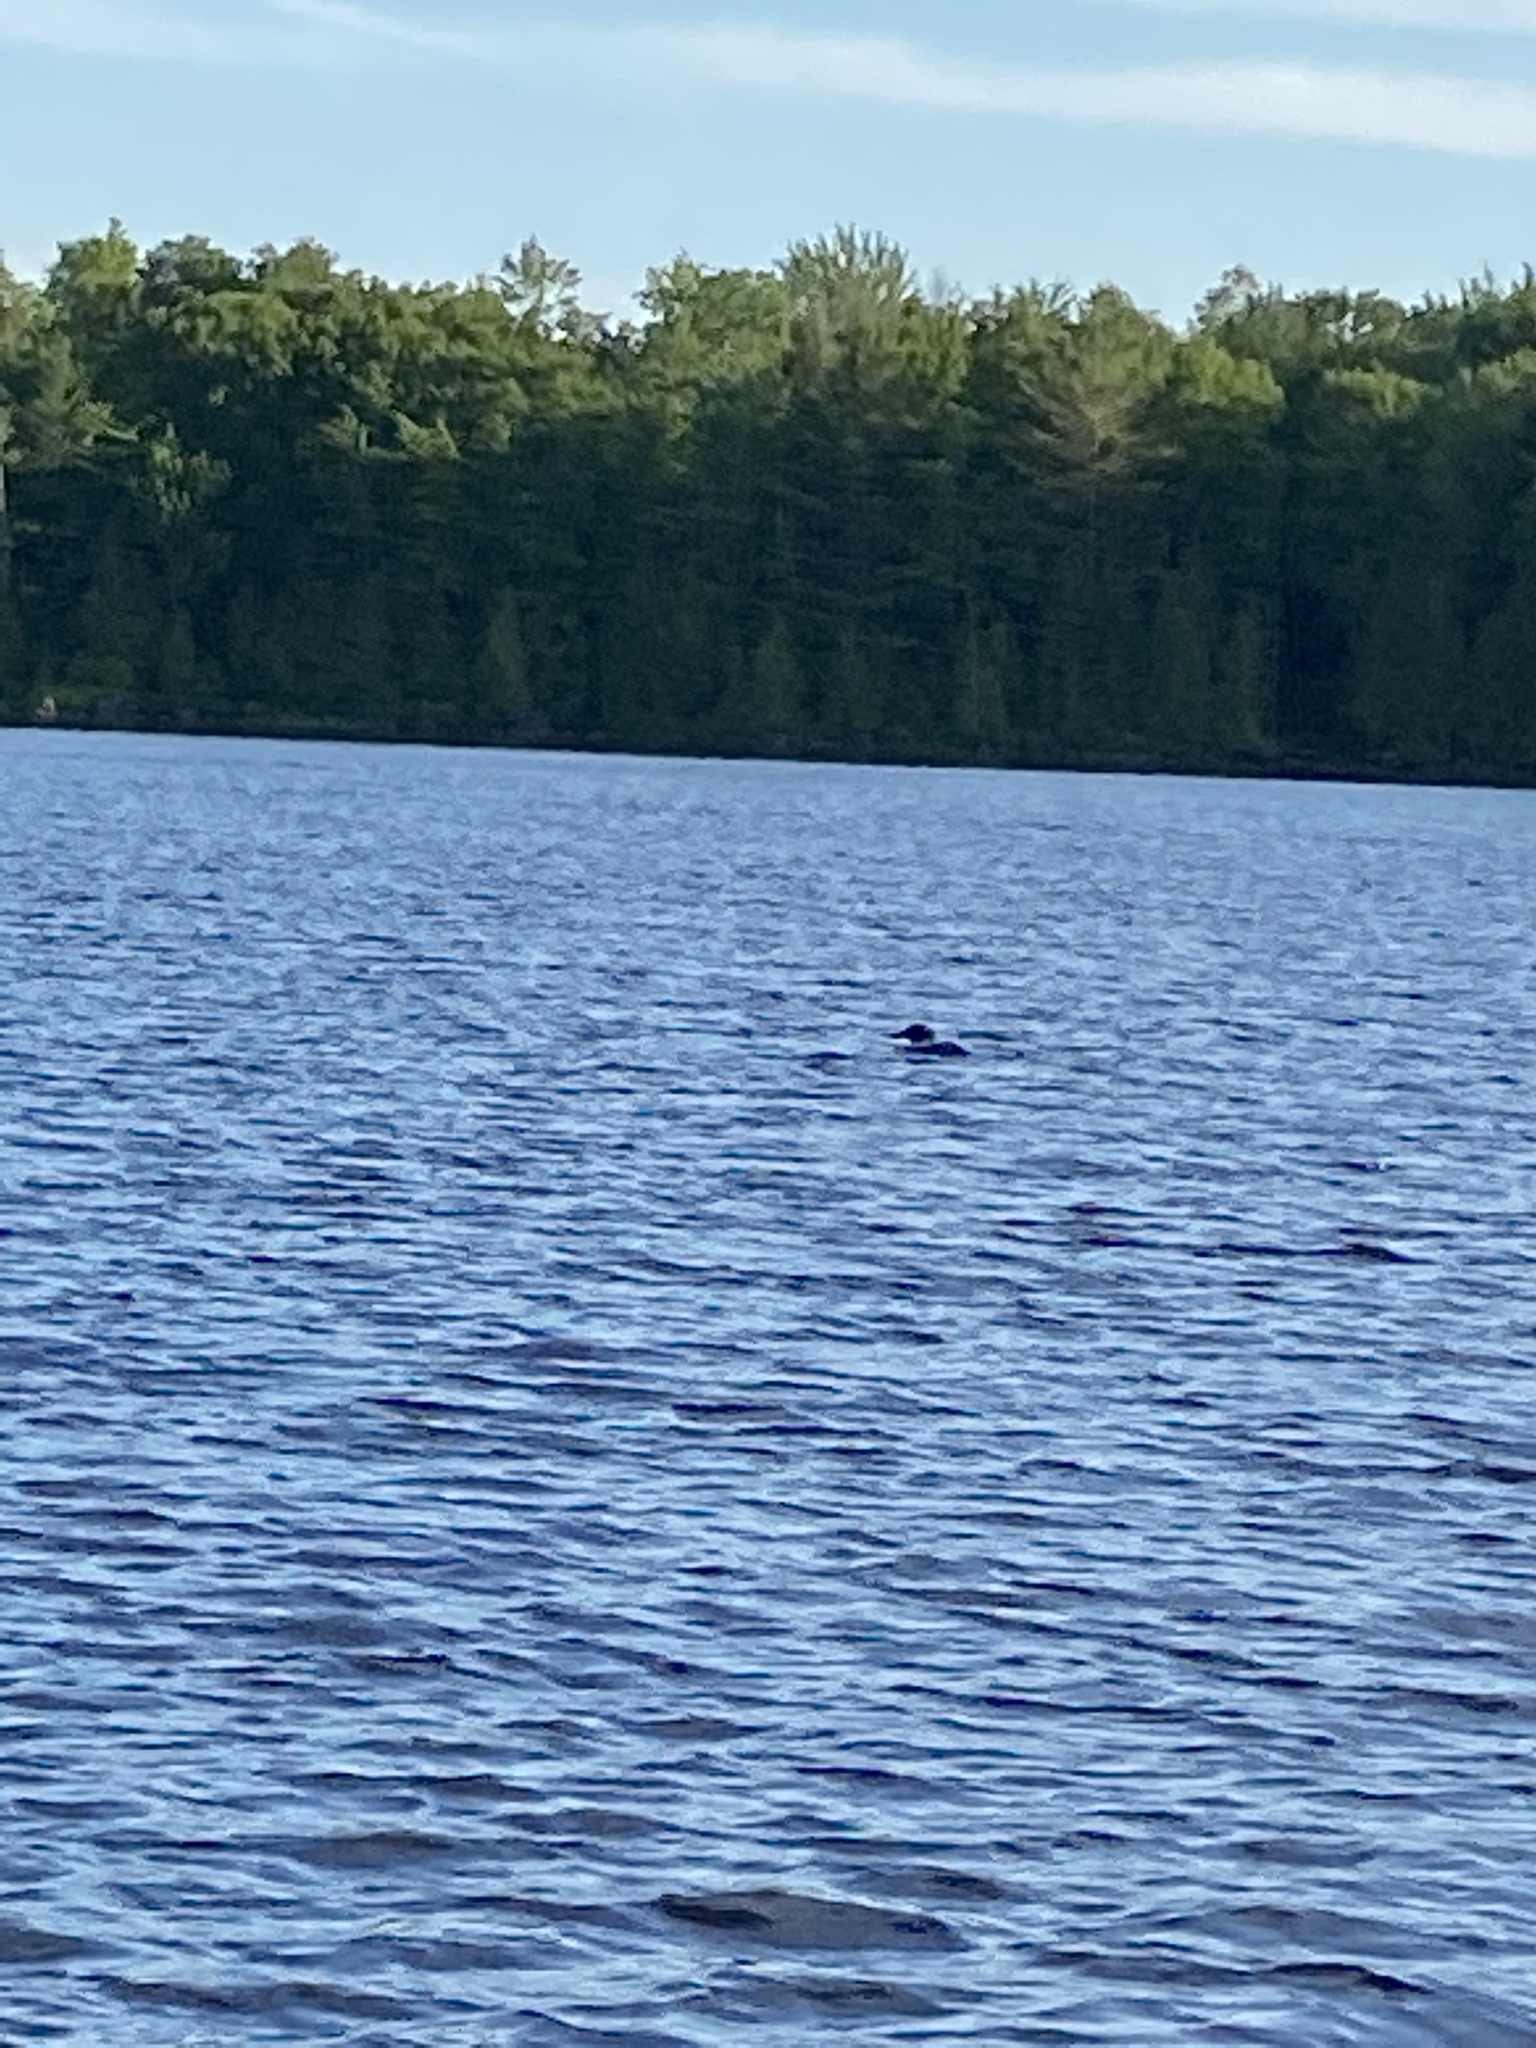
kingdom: Animalia
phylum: Chordata
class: Aves
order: Gaviiformes
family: Gaviidae
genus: Gavia
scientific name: Gavia immer
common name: Common loon
